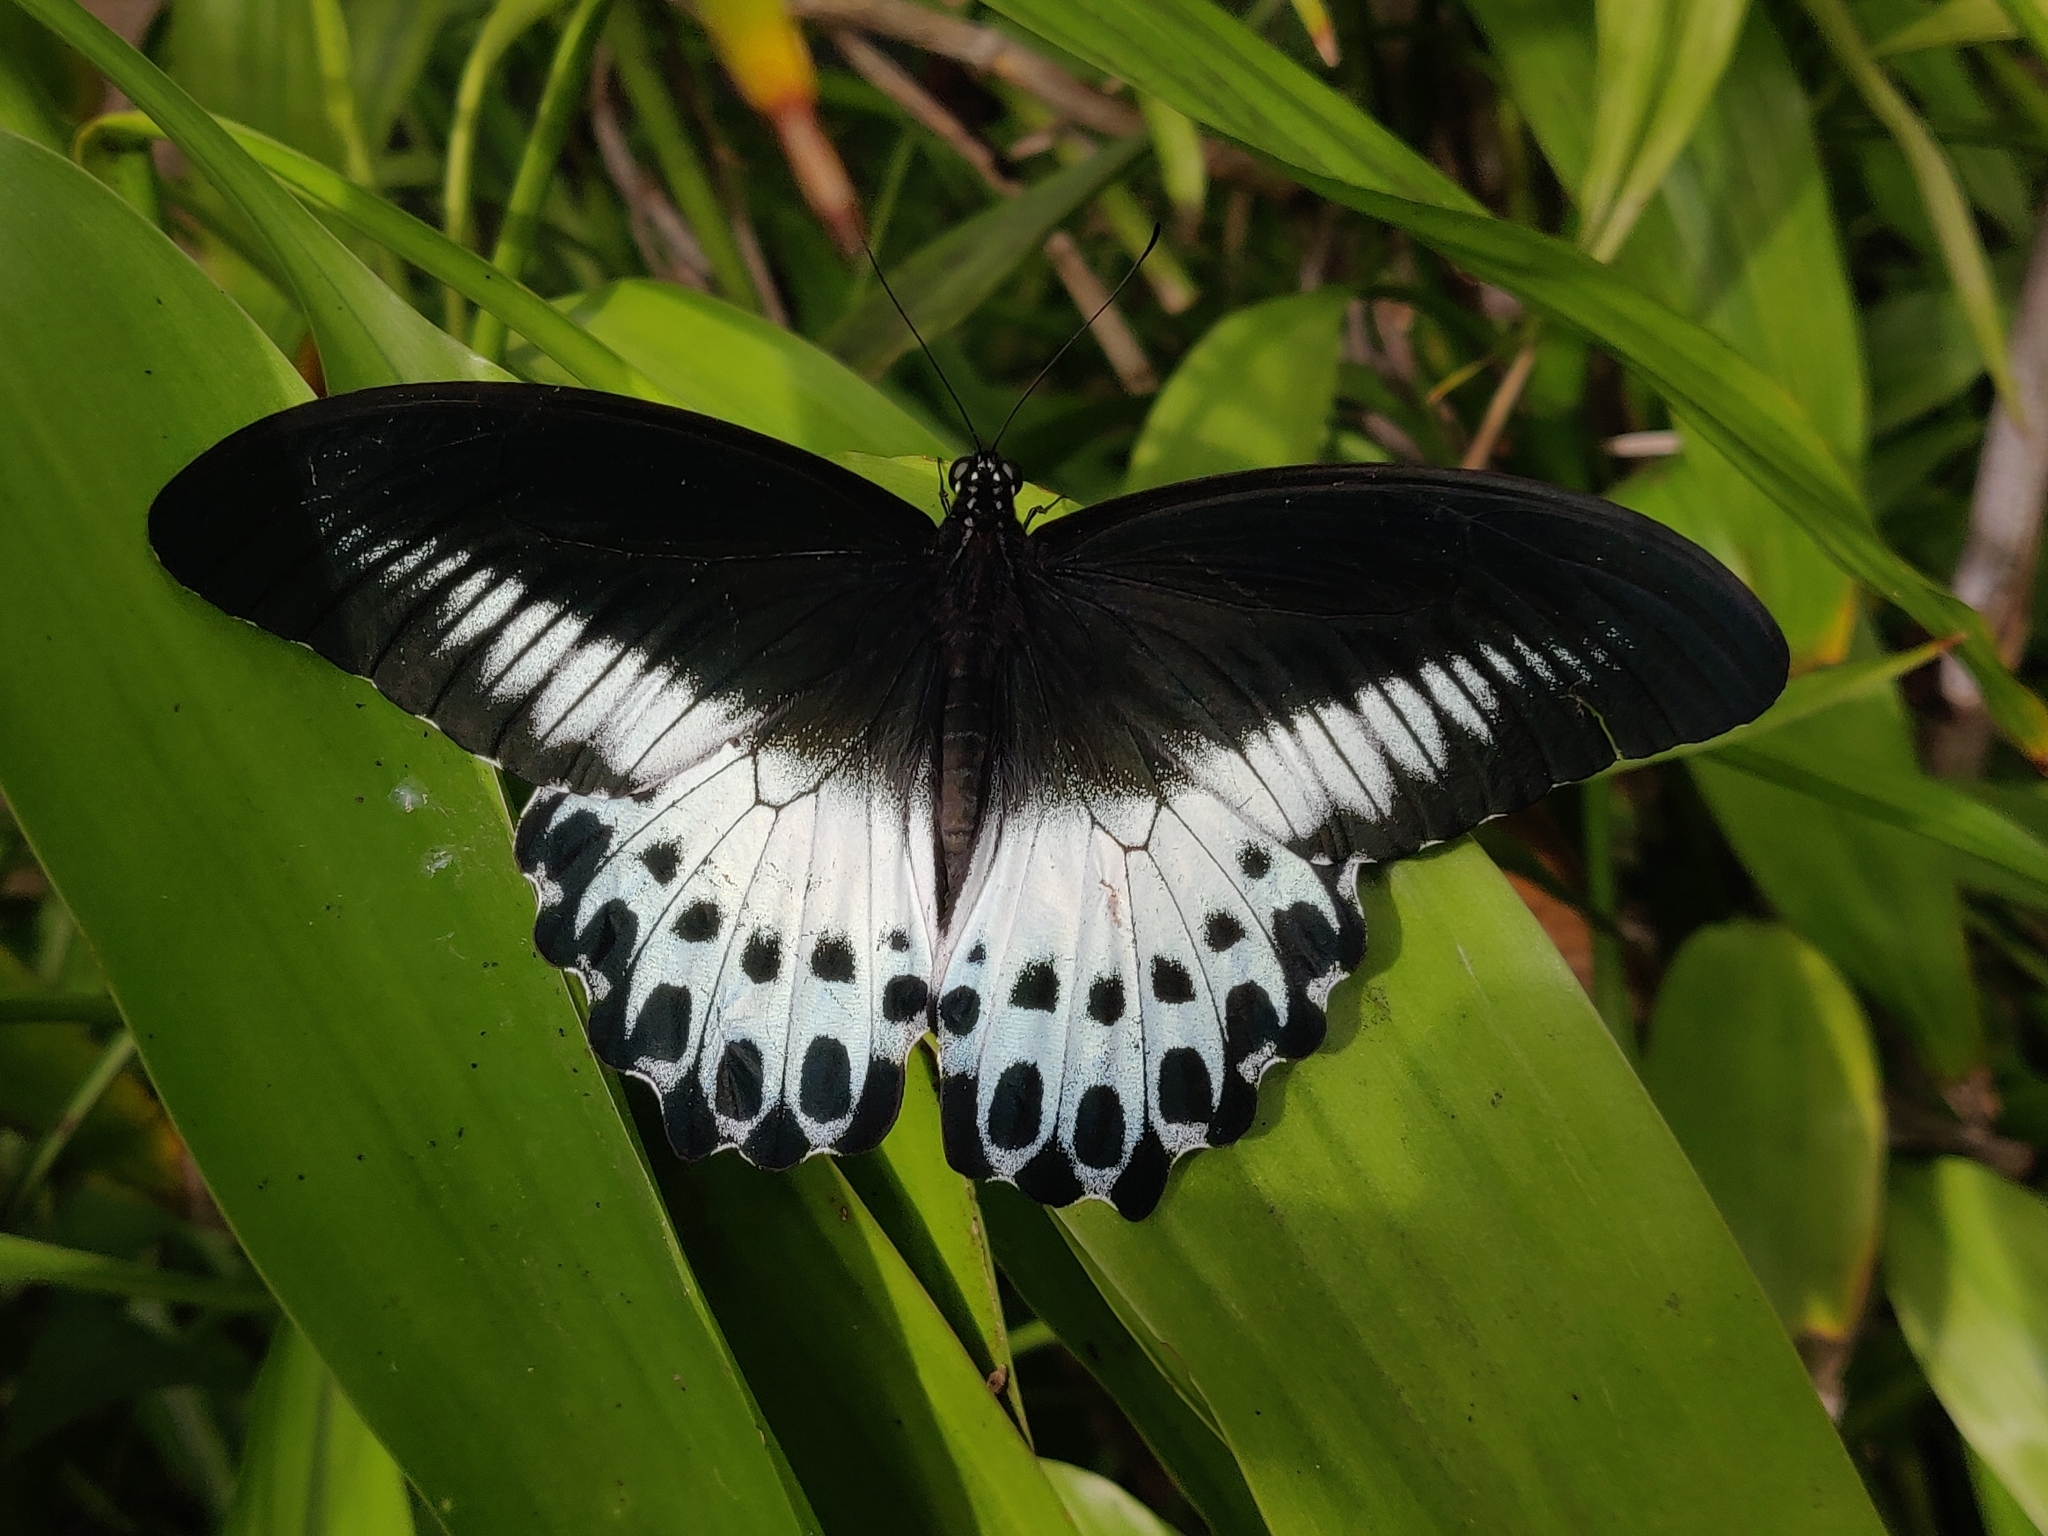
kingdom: Animalia
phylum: Arthropoda
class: Insecta
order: Lepidoptera
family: Papilionidae
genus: Papilio
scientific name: Papilio memnon
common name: Great mormon
